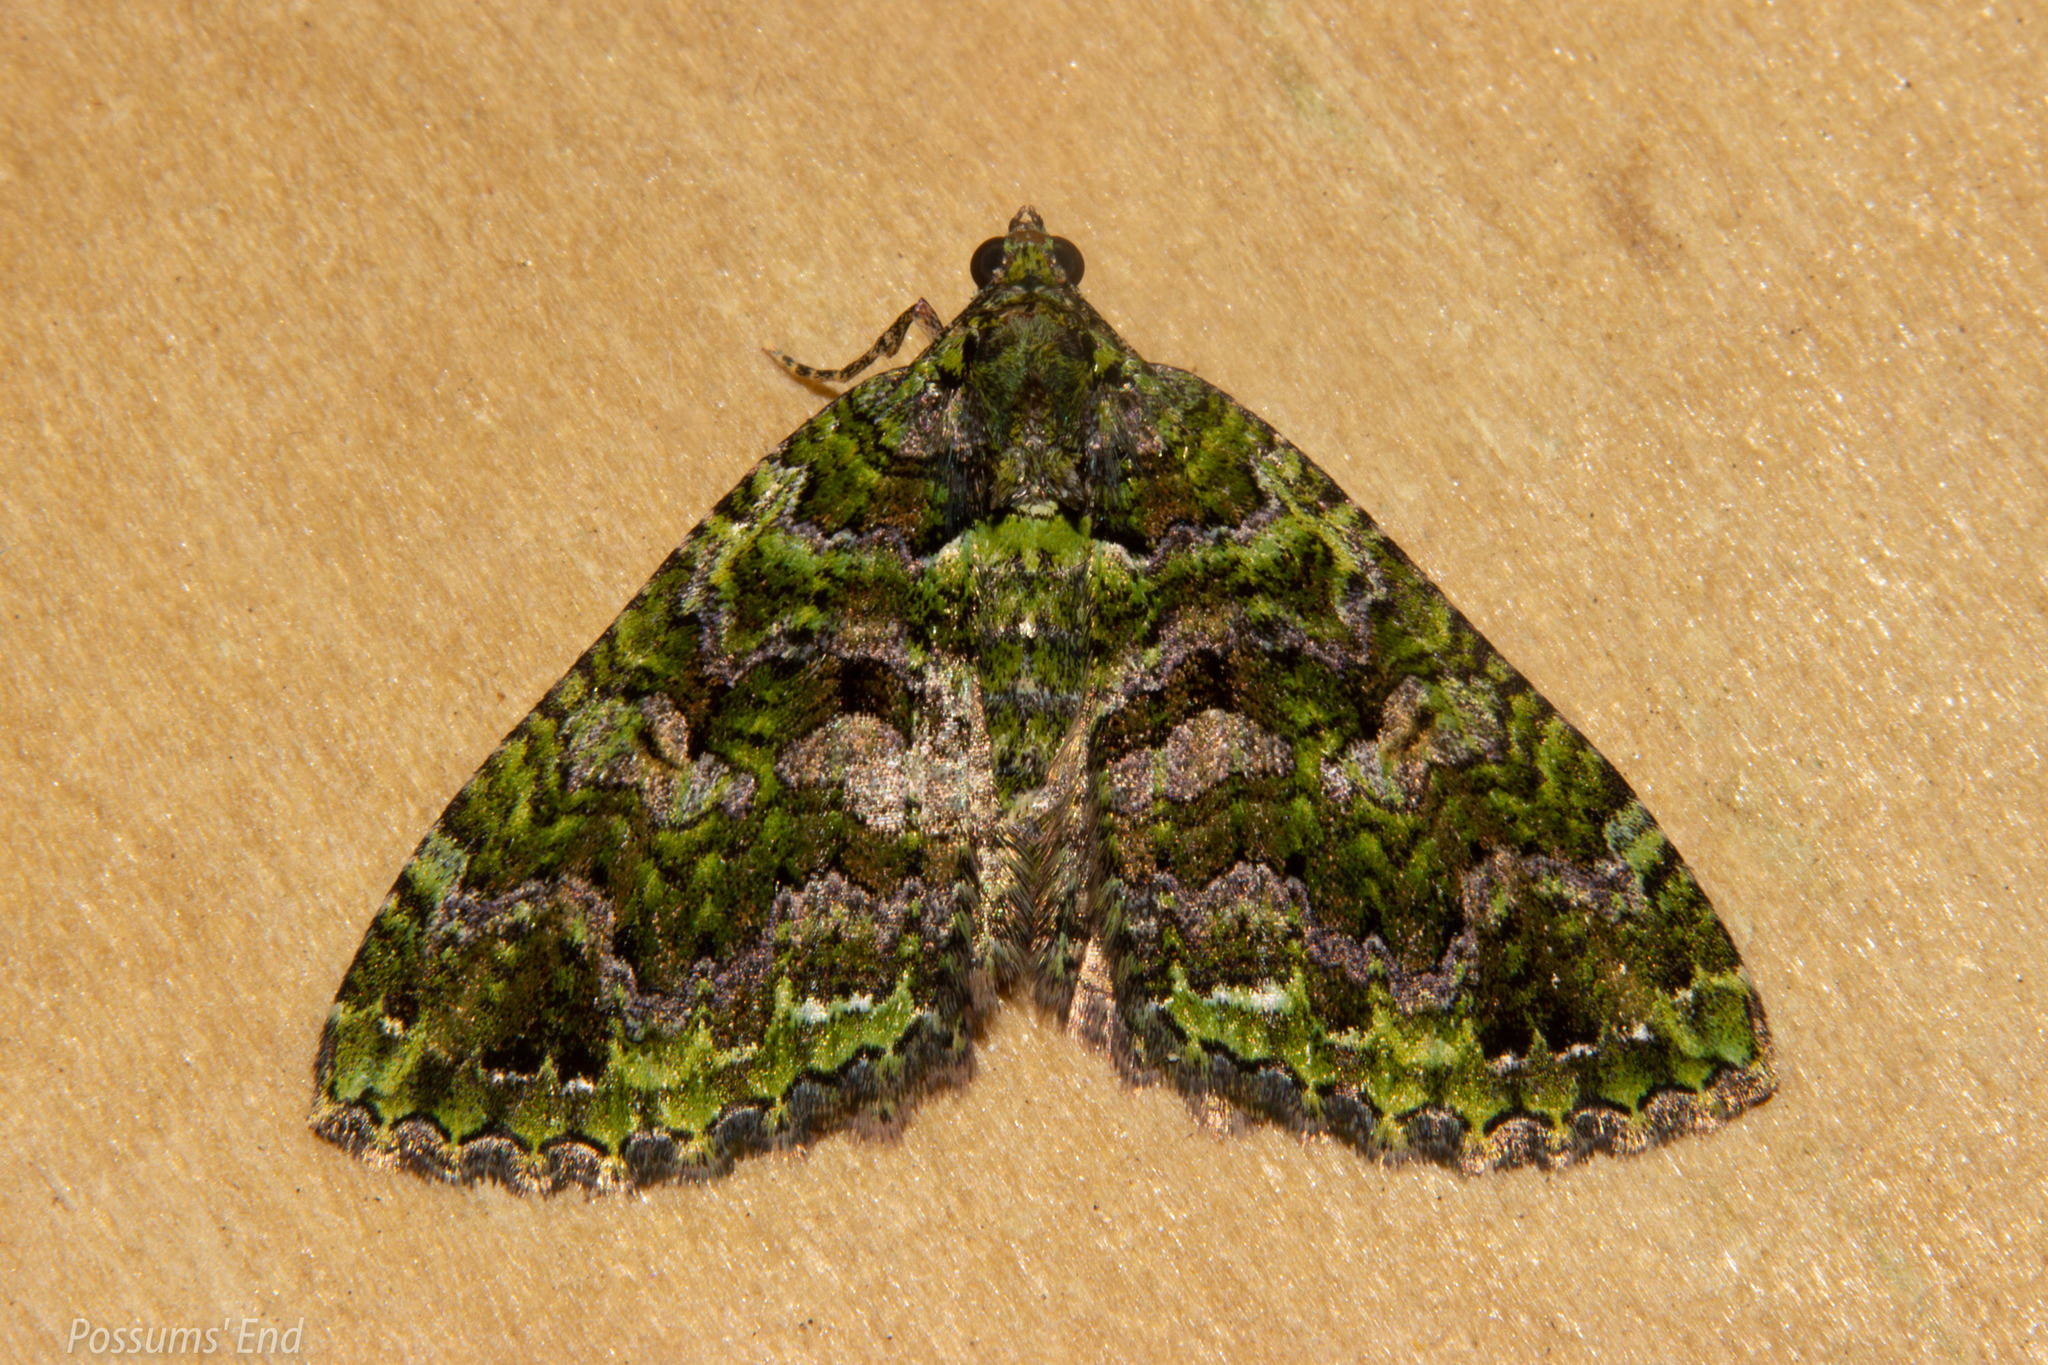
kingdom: Animalia
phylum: Arthropoda
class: Insecta
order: Lepidoptera
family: Geometridae
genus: Austrocidaria
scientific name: Austrocidaria similata
